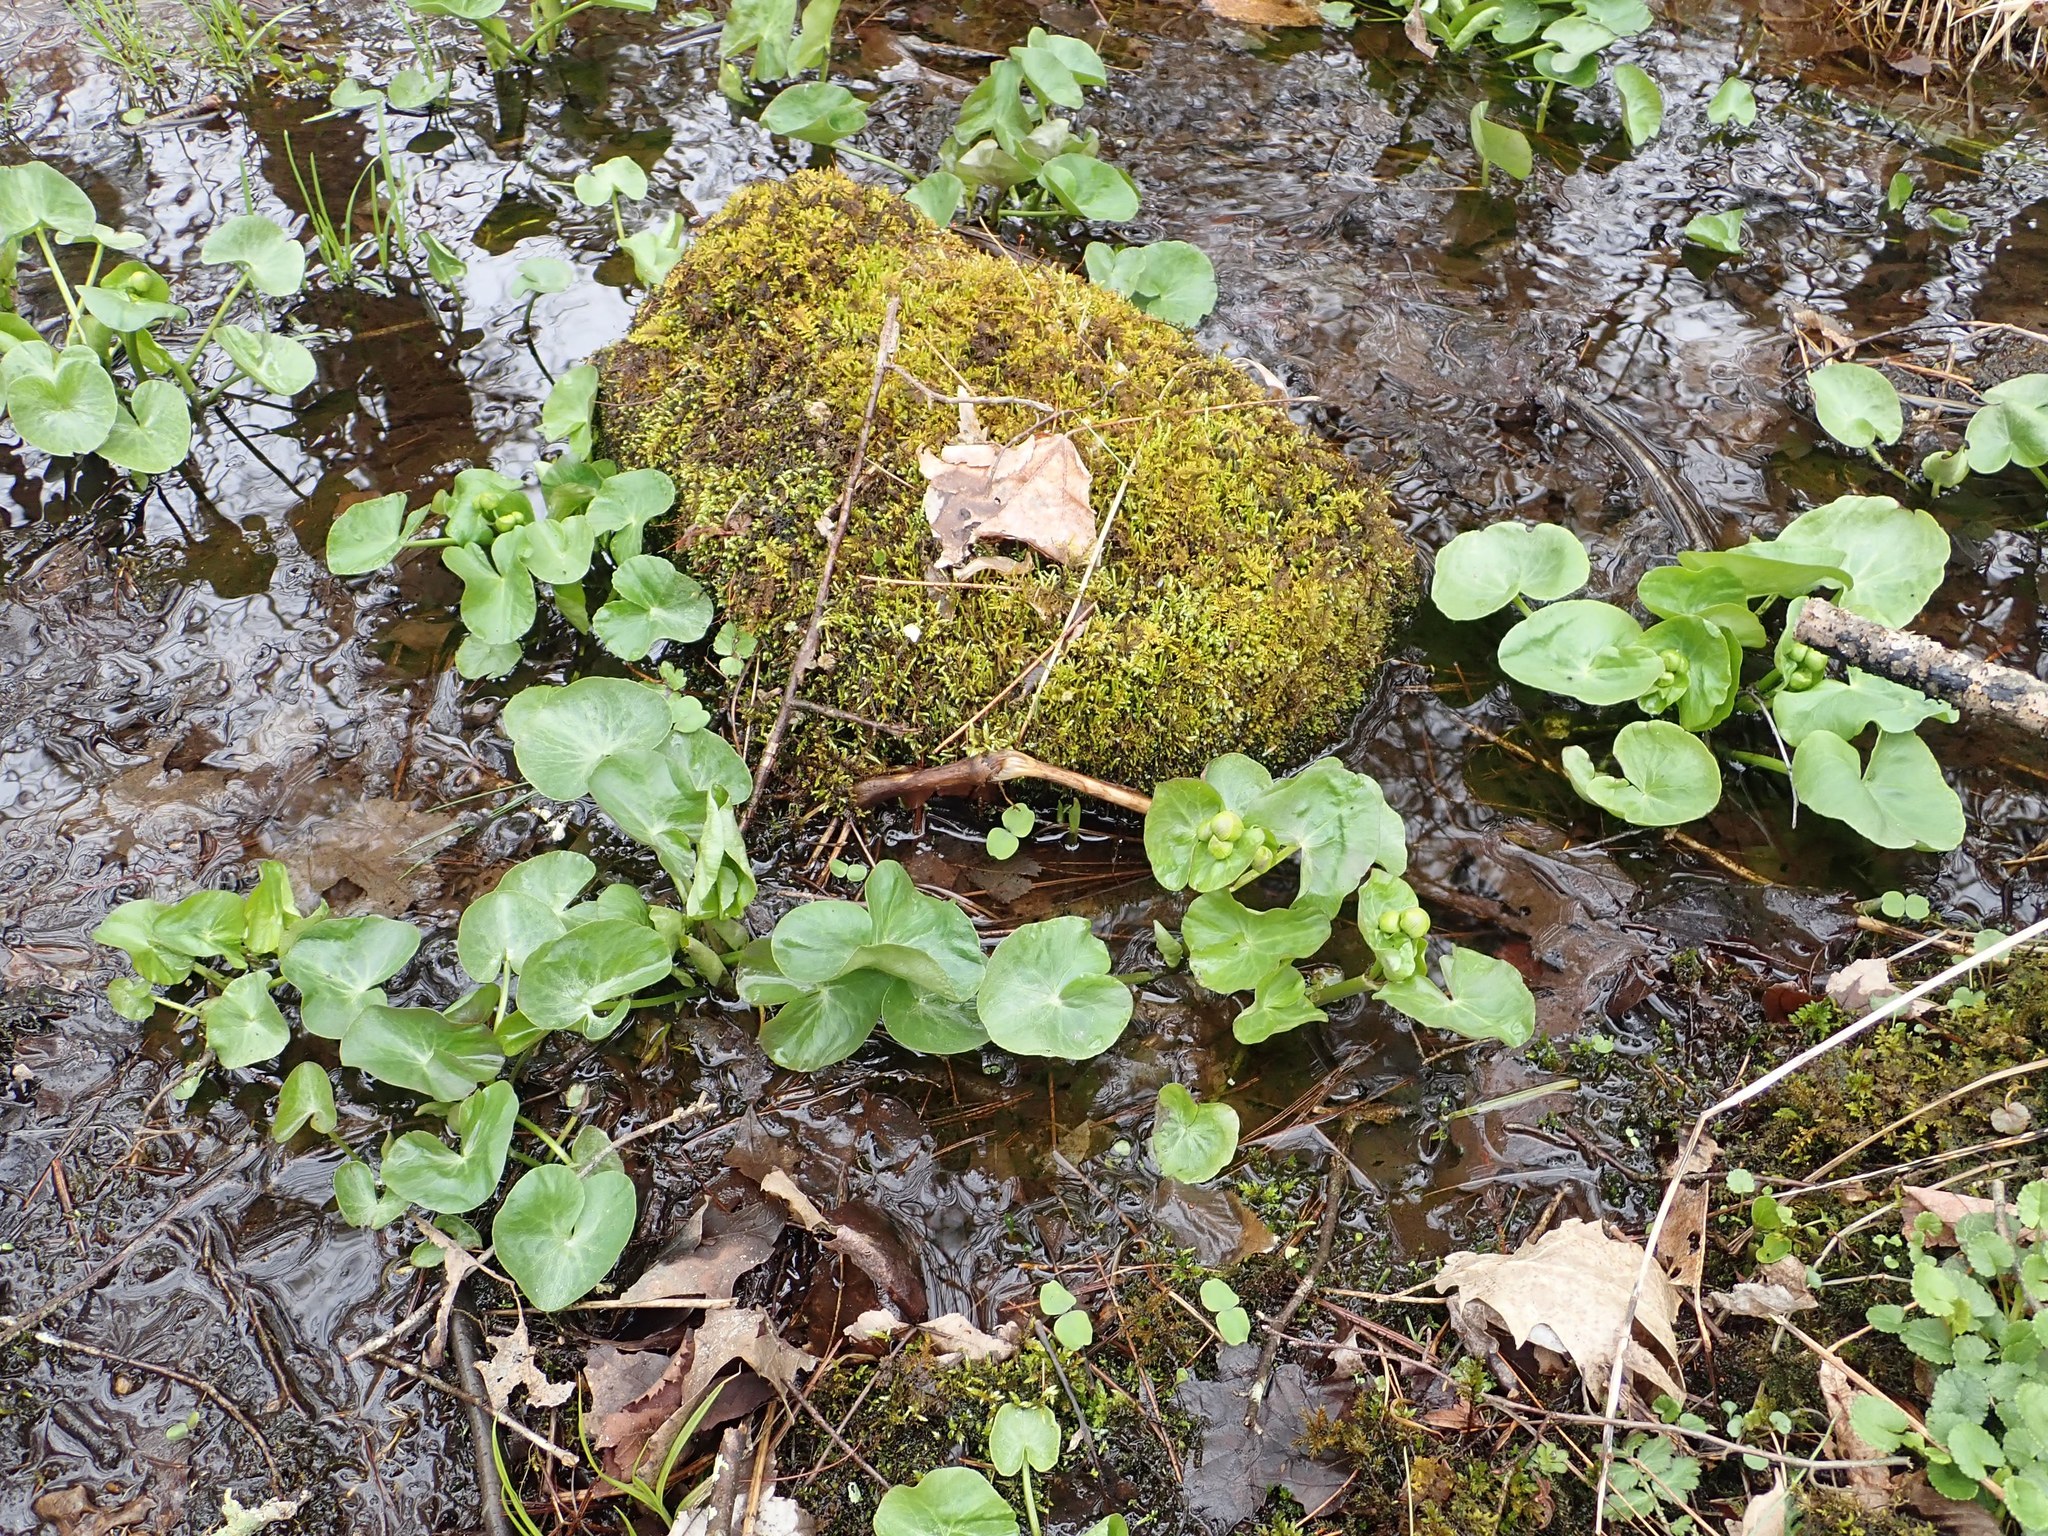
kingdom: Plantae
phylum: Tracheophyta
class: Magnoliopsida
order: Ranunculales
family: Ranunculaceae
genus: Caltha
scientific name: Caltha palustris
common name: Marsh marigold
